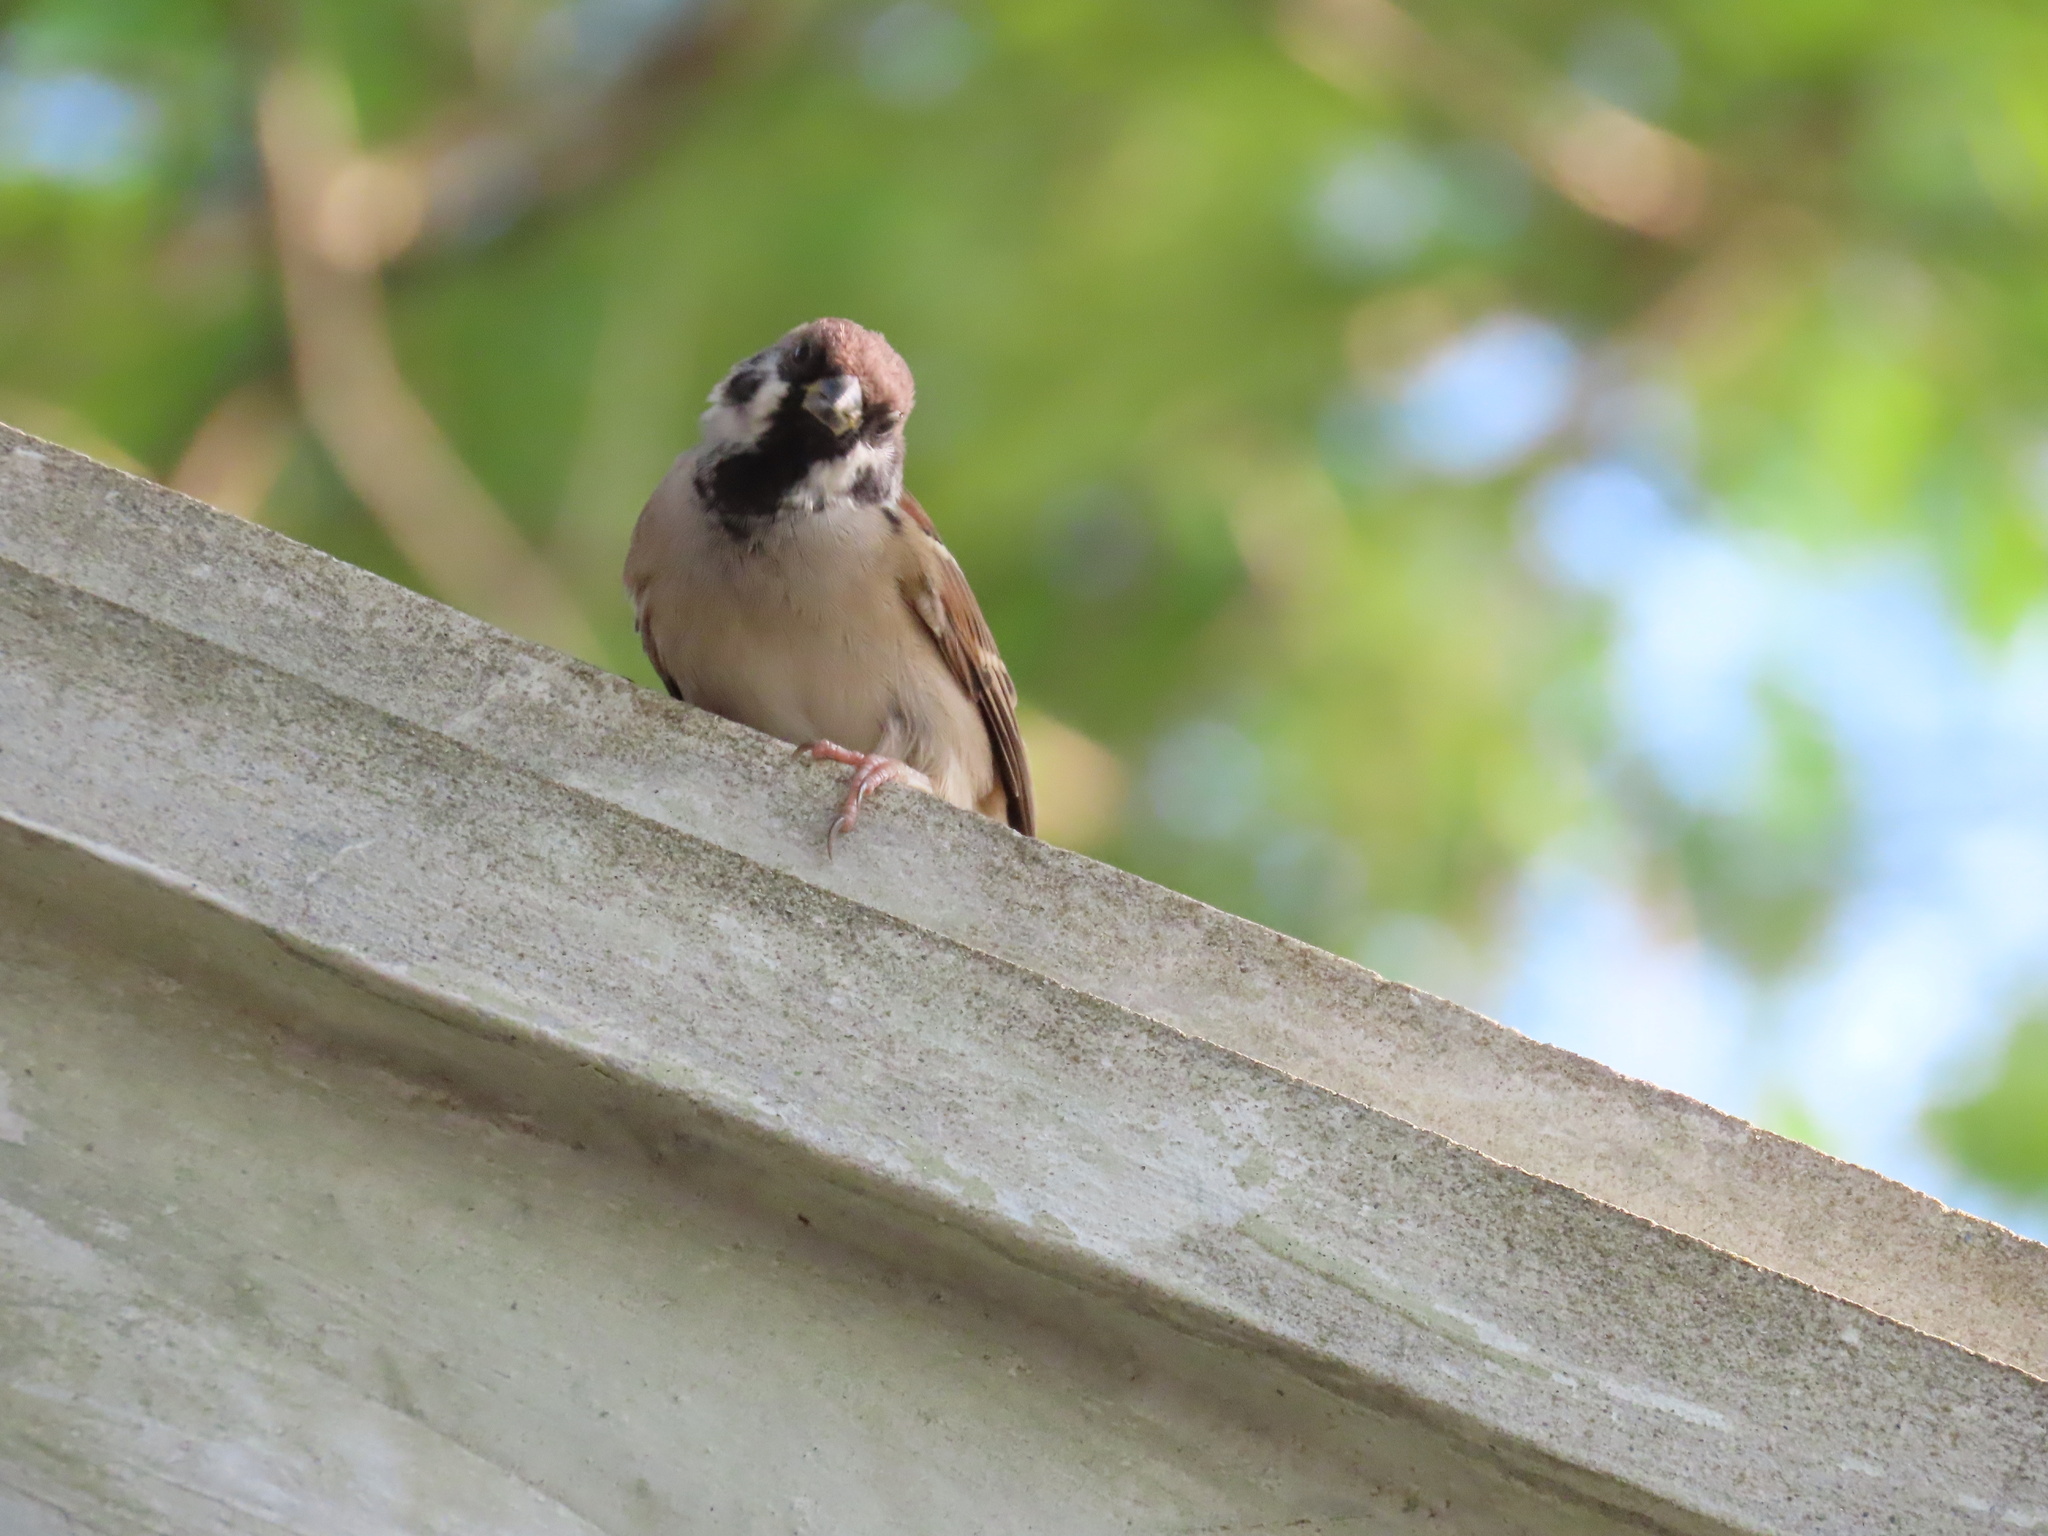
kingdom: Animalia
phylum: Chordata
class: Aves
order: Passeriformes
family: Passeridae
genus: Passer
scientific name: Passer montanus
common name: Eurasian tree sparrow
